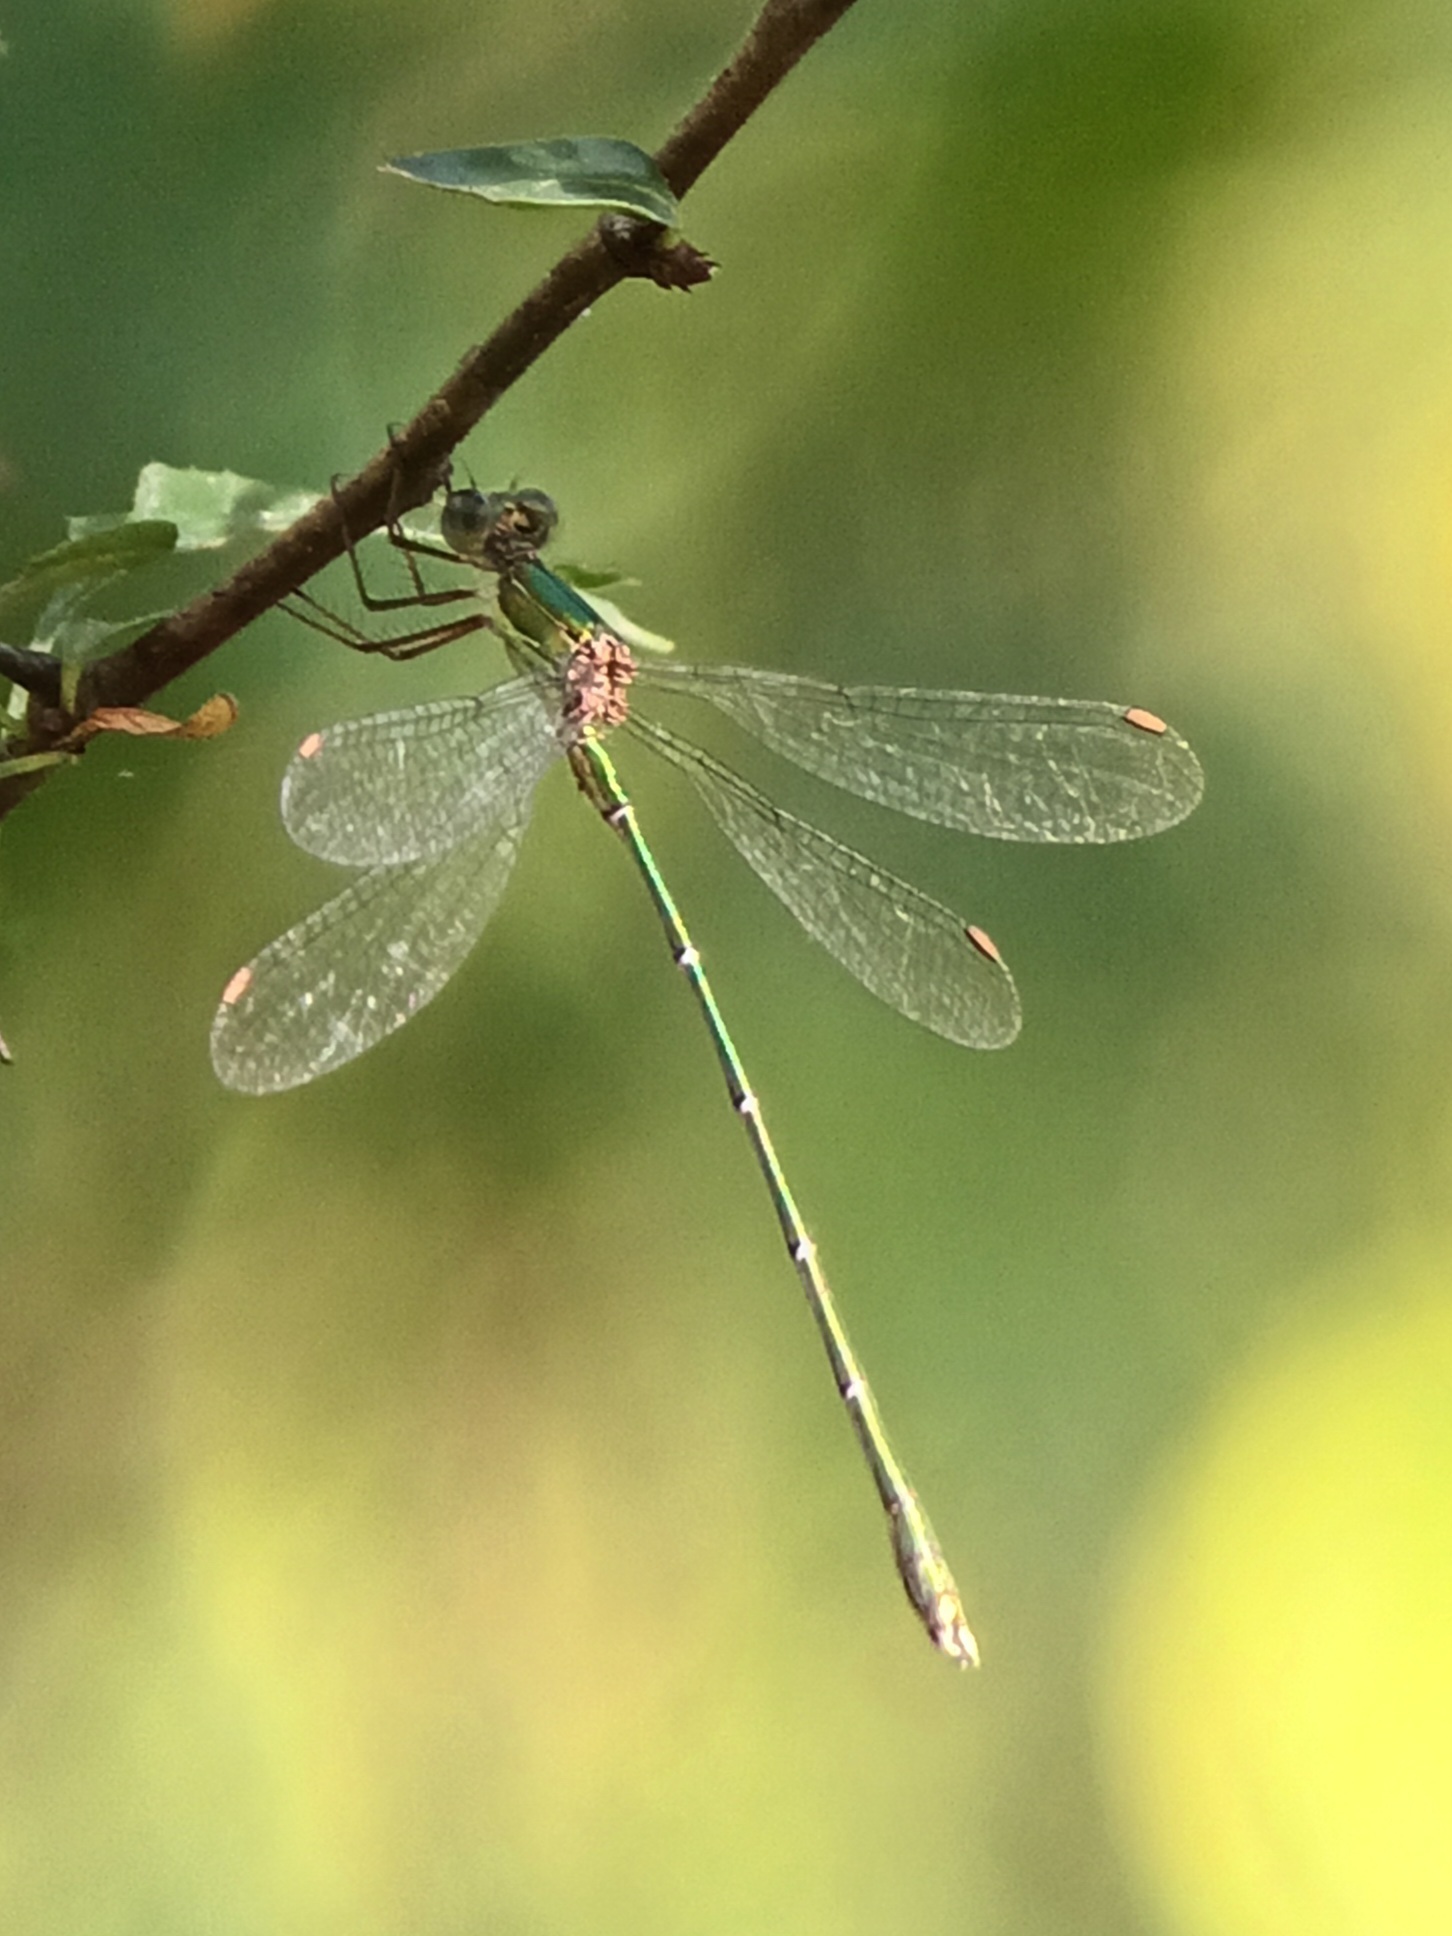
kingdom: Animalia
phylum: Arthropoda
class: Insecta
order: Odonata
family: Lestidae
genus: Chalcolestes
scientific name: Chalcolestes viridis
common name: Green emerald damselfly
